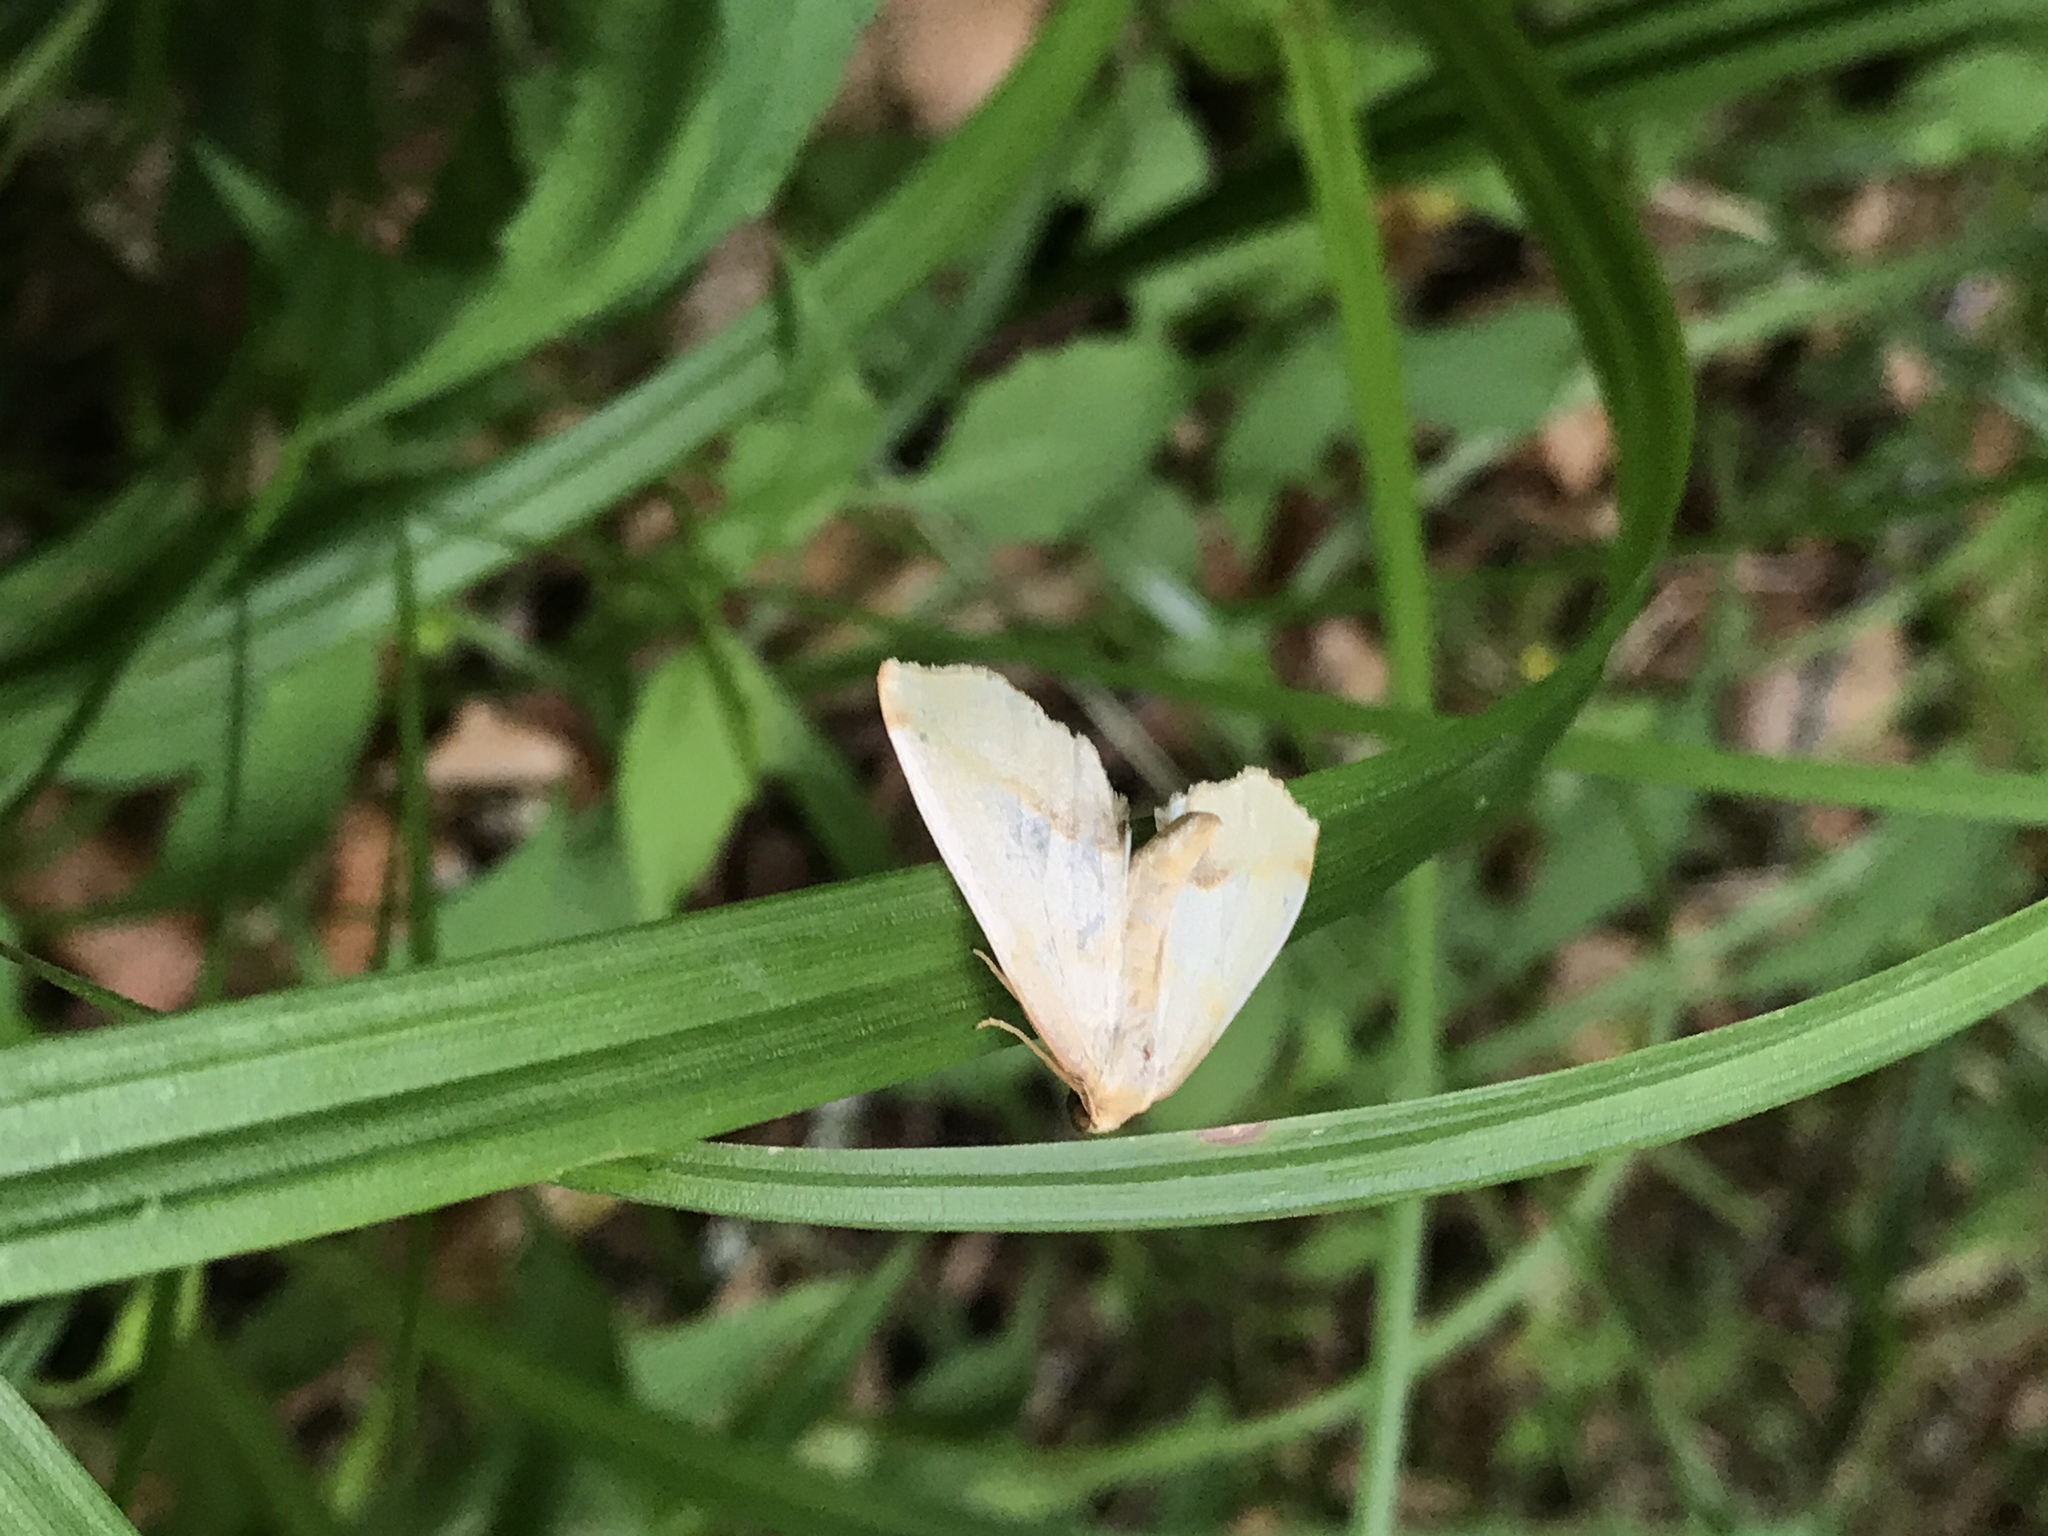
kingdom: Animalia
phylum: Arthropoda
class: Insecta
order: Lepidoptera
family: Geometridae
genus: Plagodis
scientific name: Plagodis serinaria
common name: Lemon plagodis
